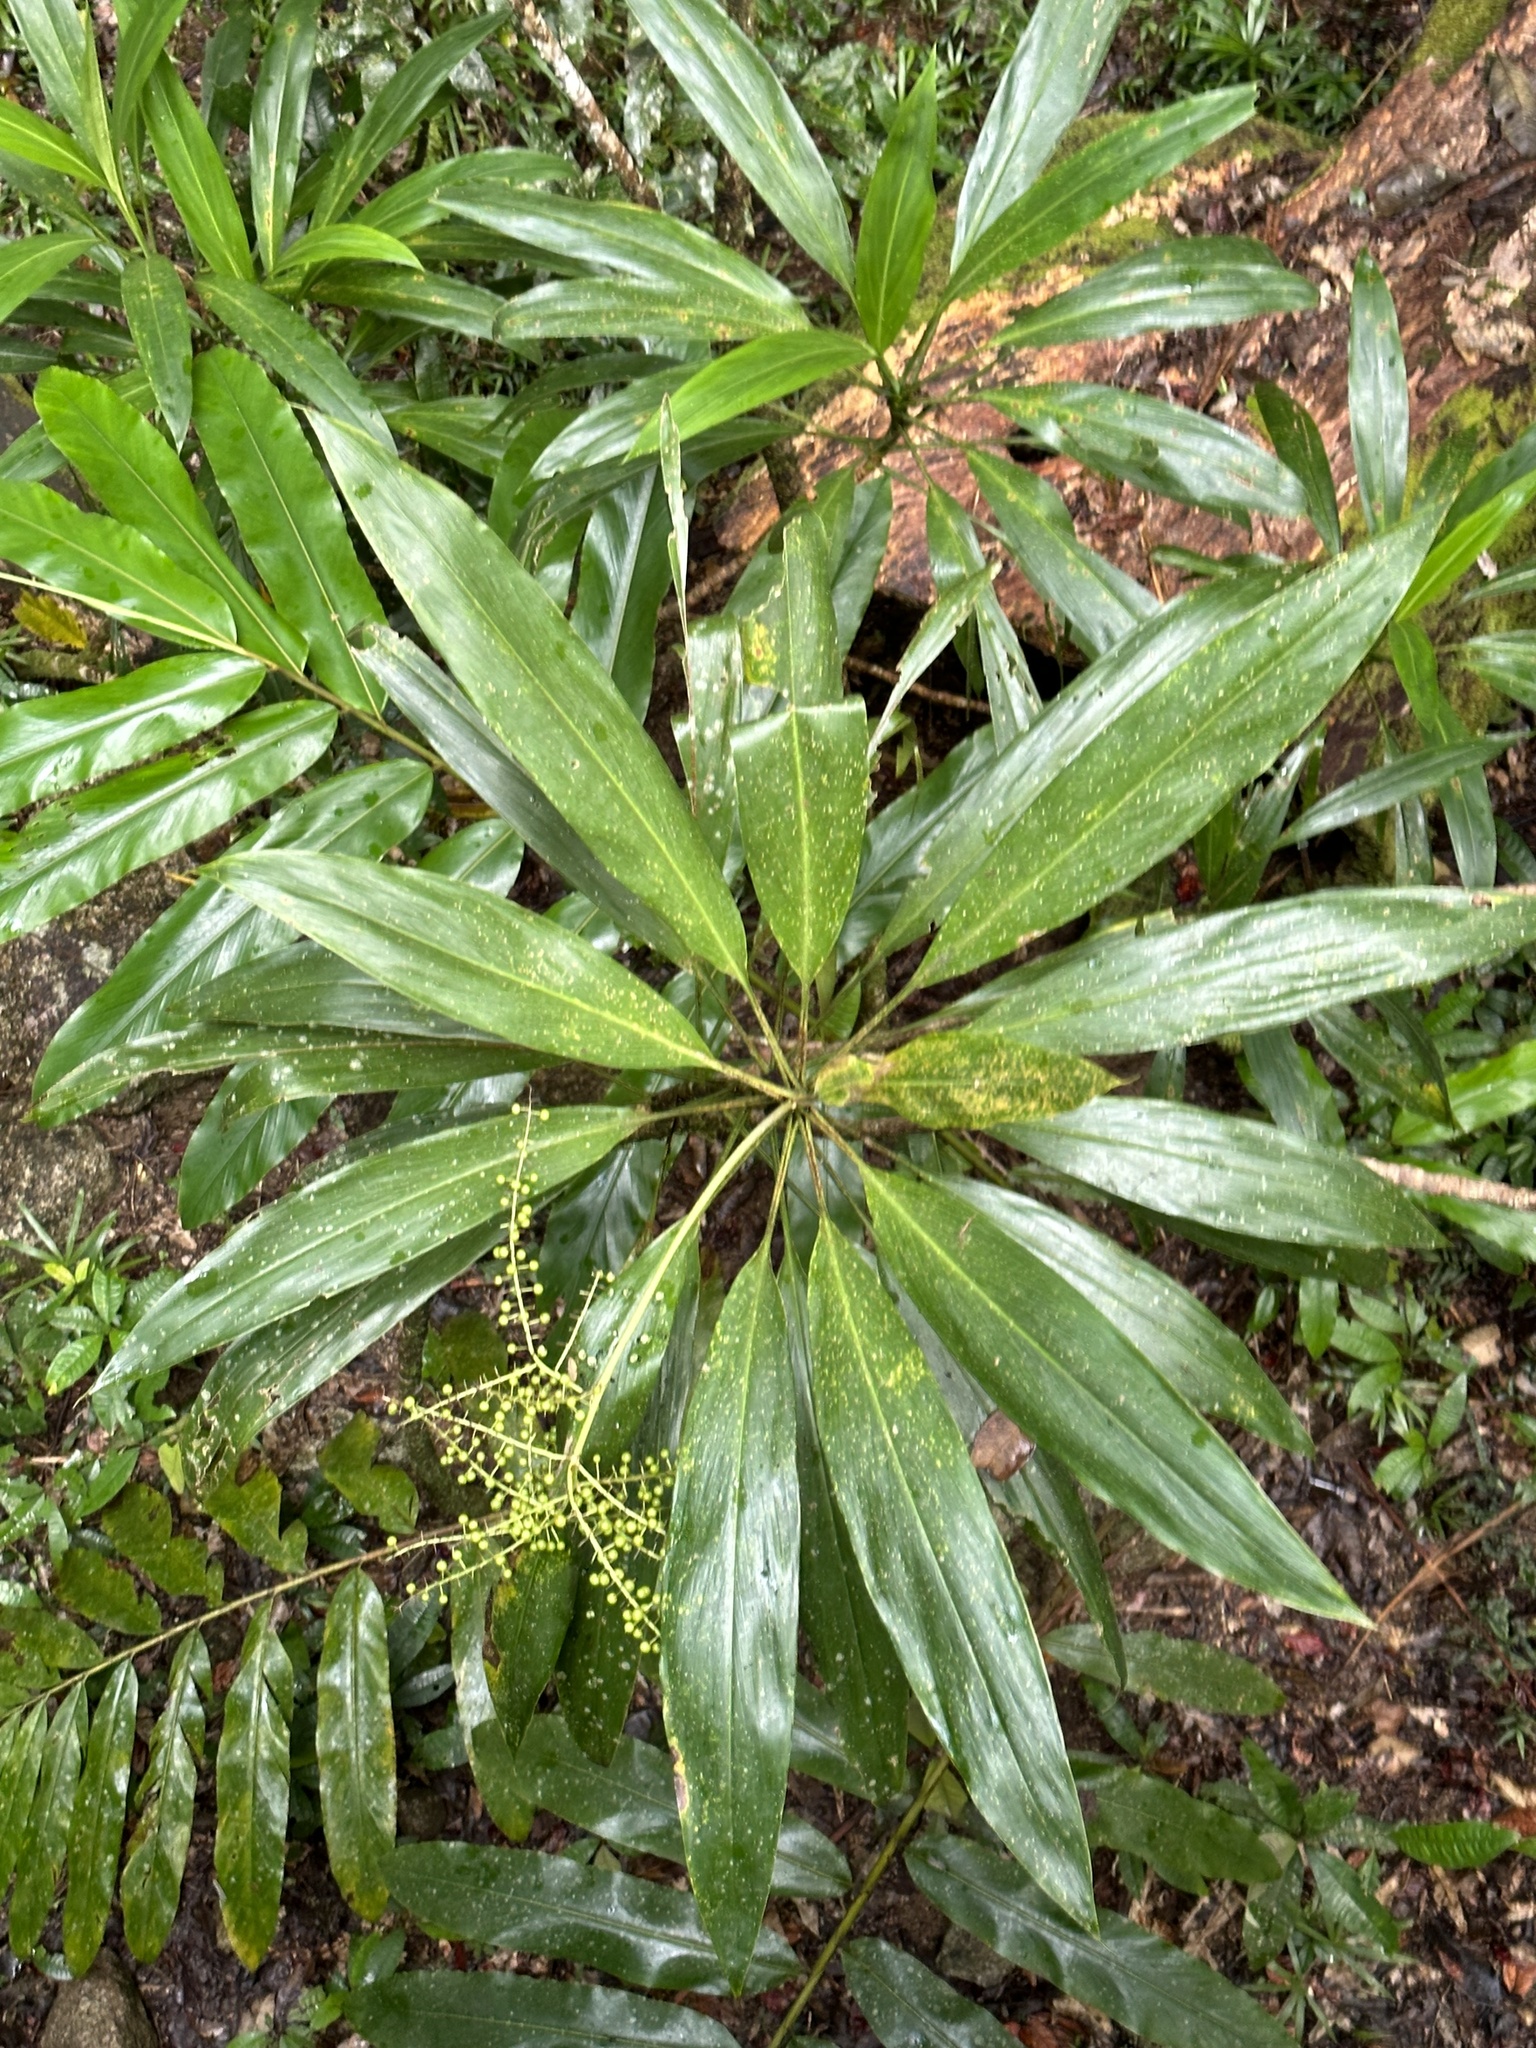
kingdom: Plantae
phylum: Tracheophyta
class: Liliopsida
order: Asparagales
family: Asparagaceae
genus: Cordyline
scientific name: Cordyline manners-suttoniae
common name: Giant palm-lily
